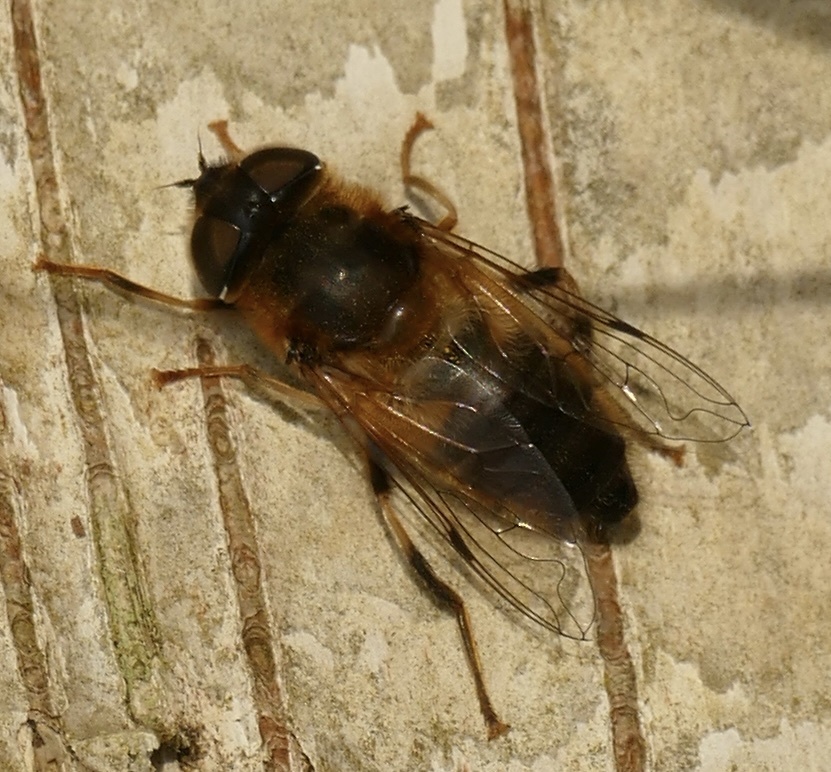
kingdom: Animalia
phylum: Arthropoda
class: Insecta
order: Diptera
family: Syrphidae
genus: Eristalis
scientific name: Eristalis pertinax
